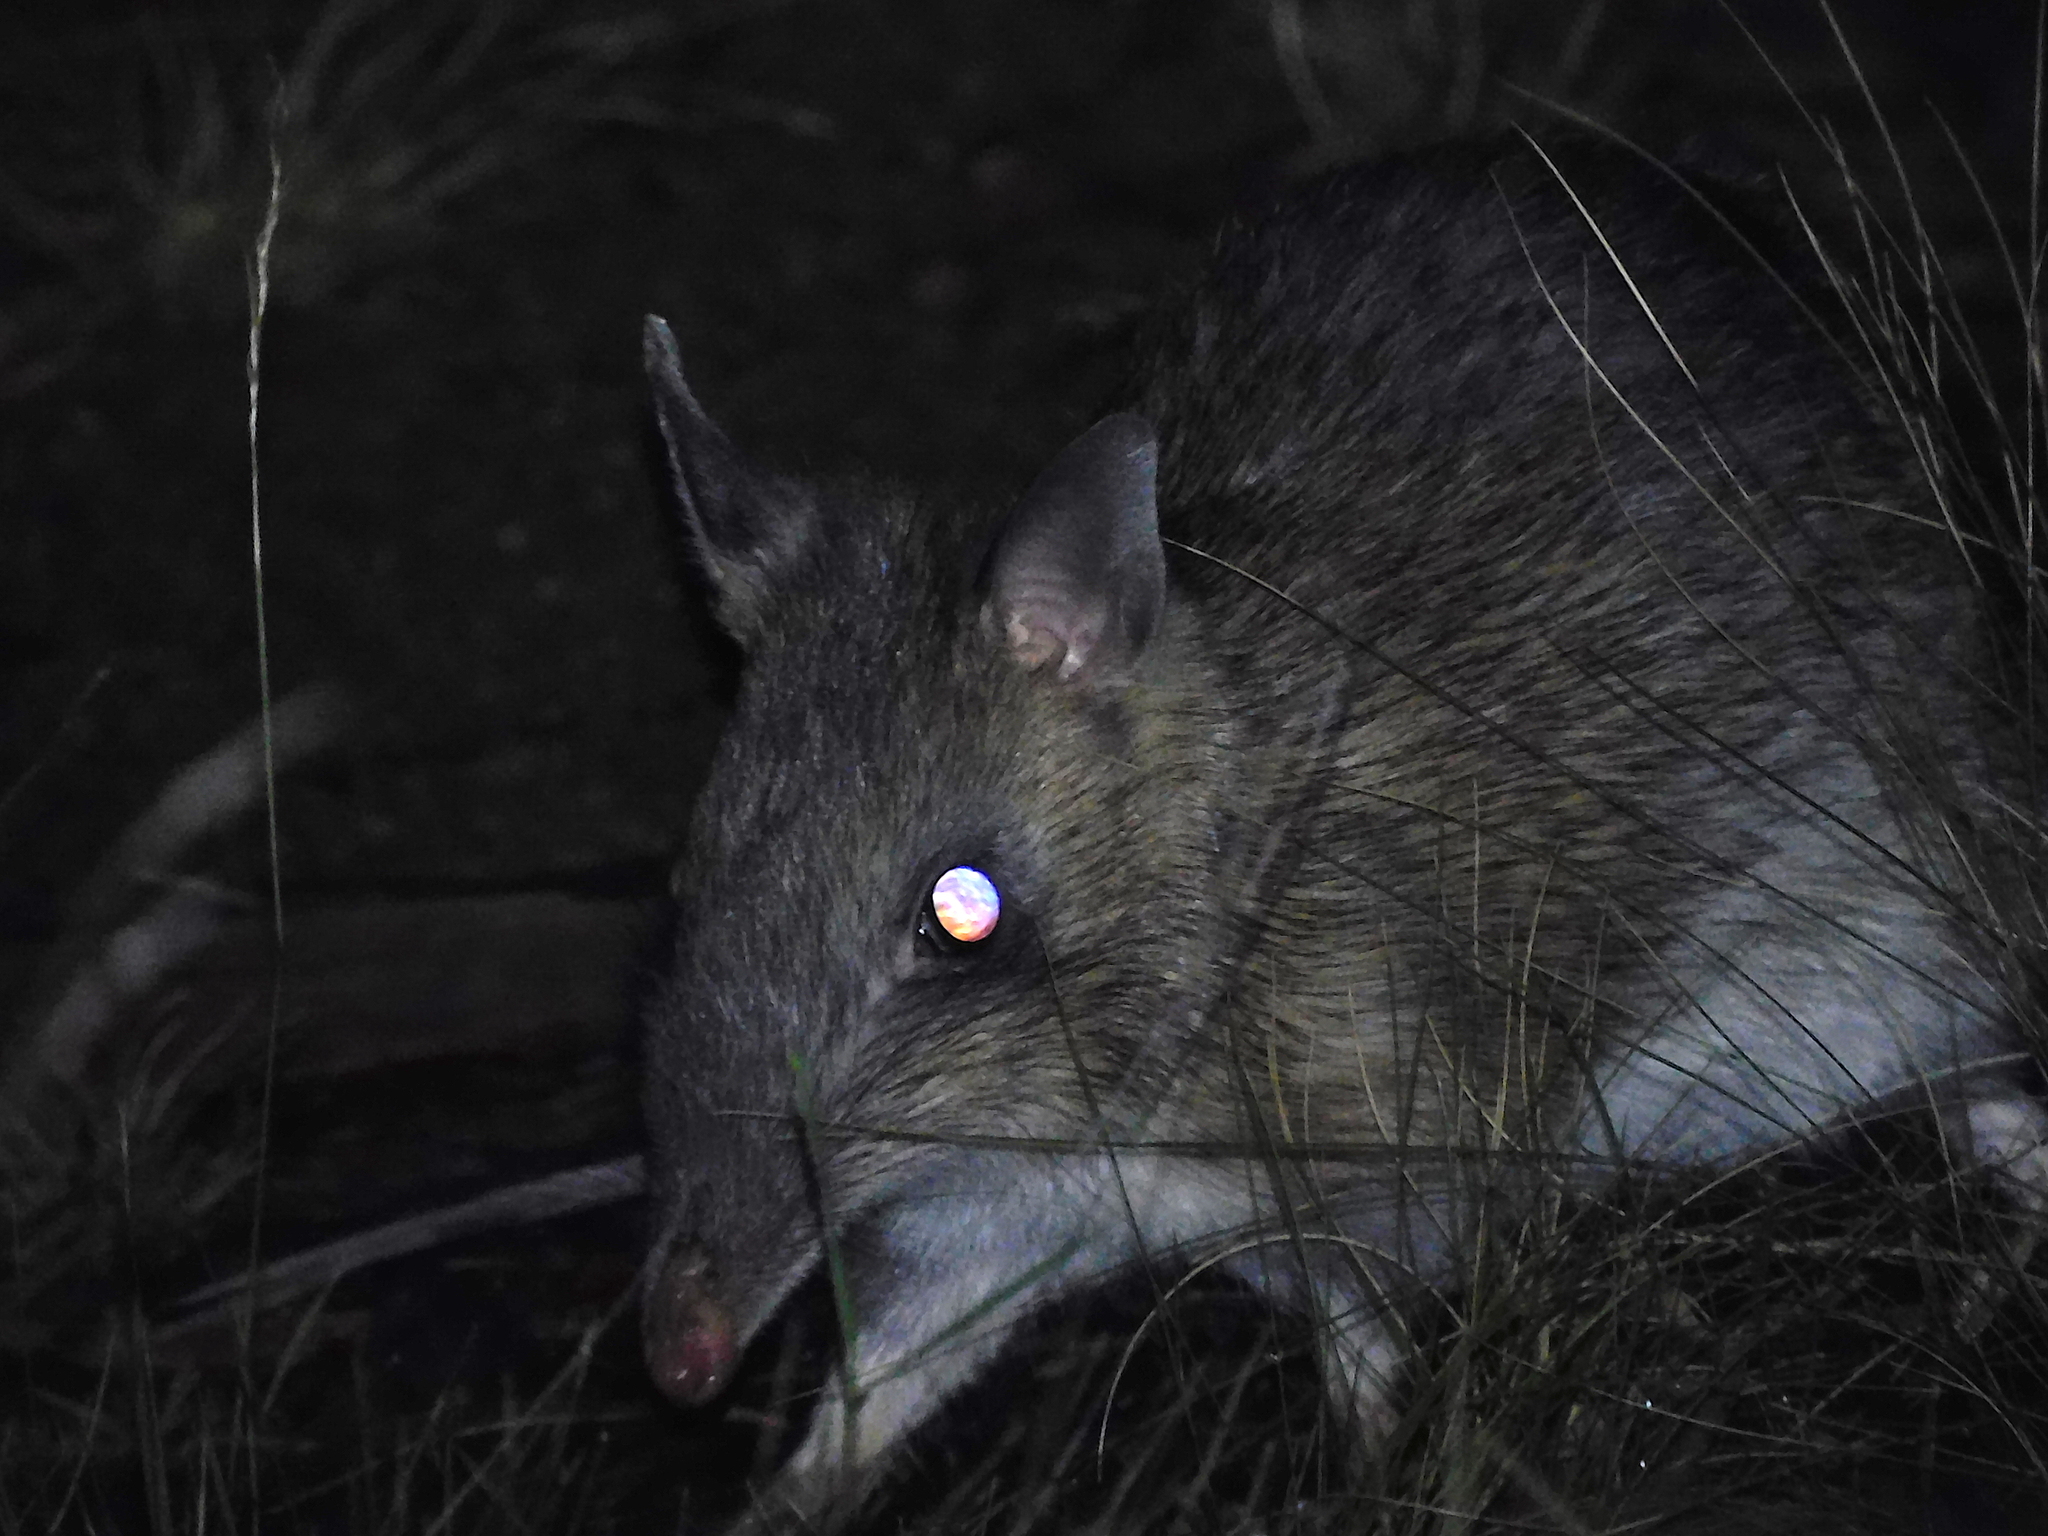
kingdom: Animalia
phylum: Chordata
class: Mammalia
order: Peramelemorphia
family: Peramelidae
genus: Perameles
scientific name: Perameles gunnii
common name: Eastern barred bandicoot
